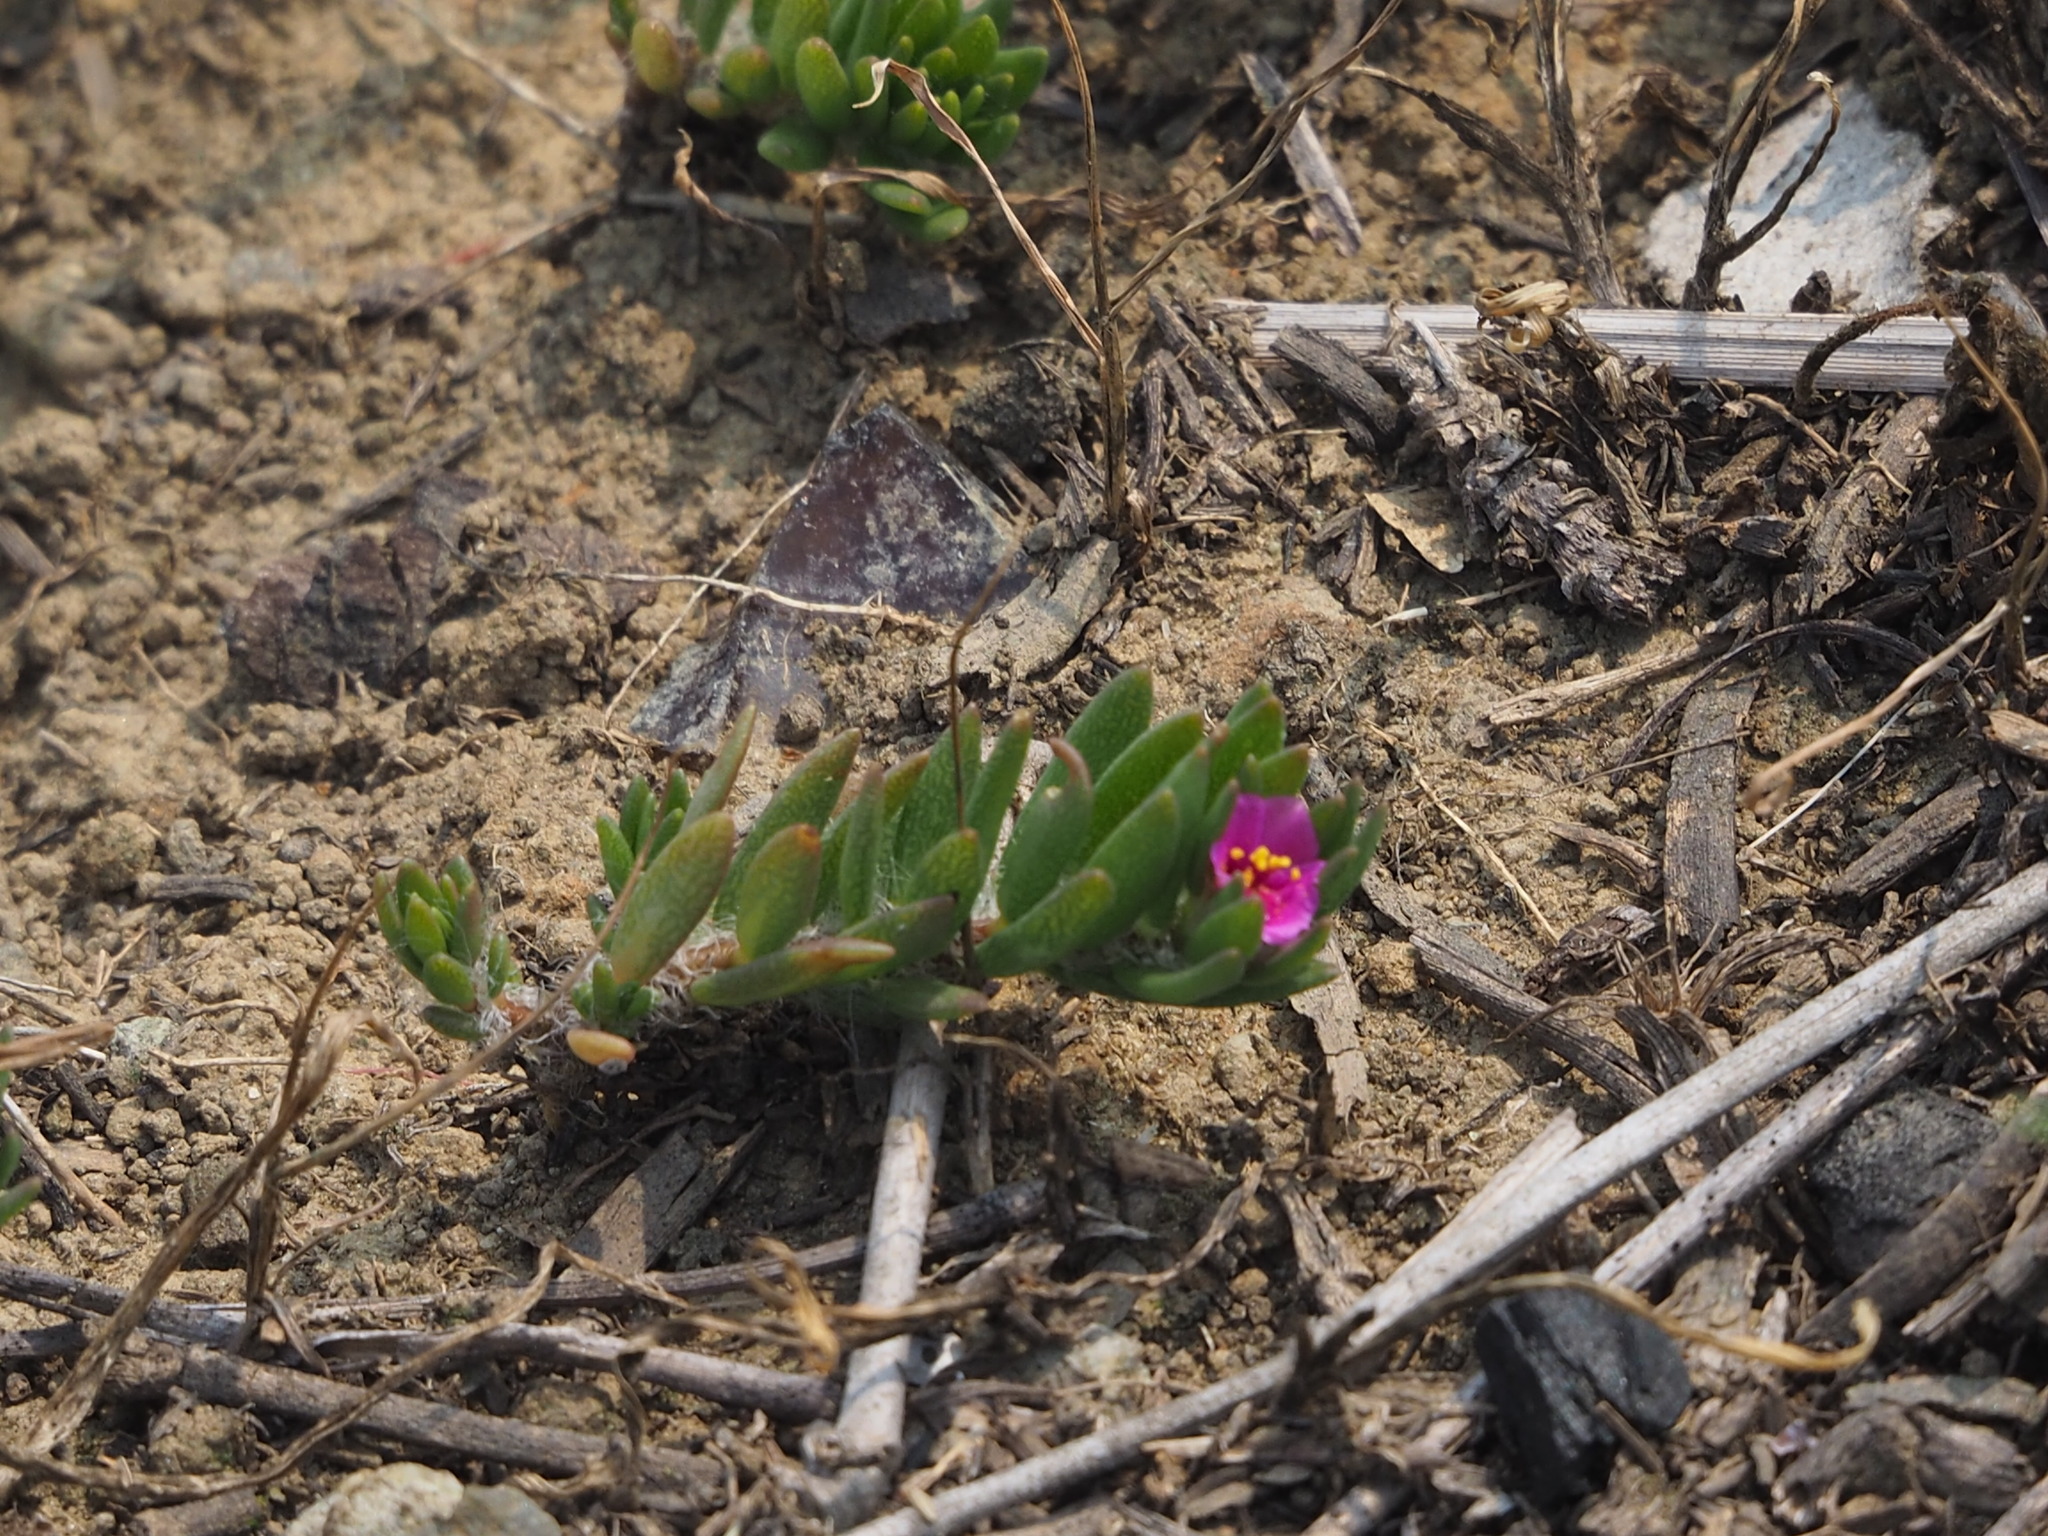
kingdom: Plantae
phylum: Tracheophyta
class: Magnoliopsida
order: Caryophyllales
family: Portulacaceae
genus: Portulaca
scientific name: Portulaca pilosa
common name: Kiss me quick
